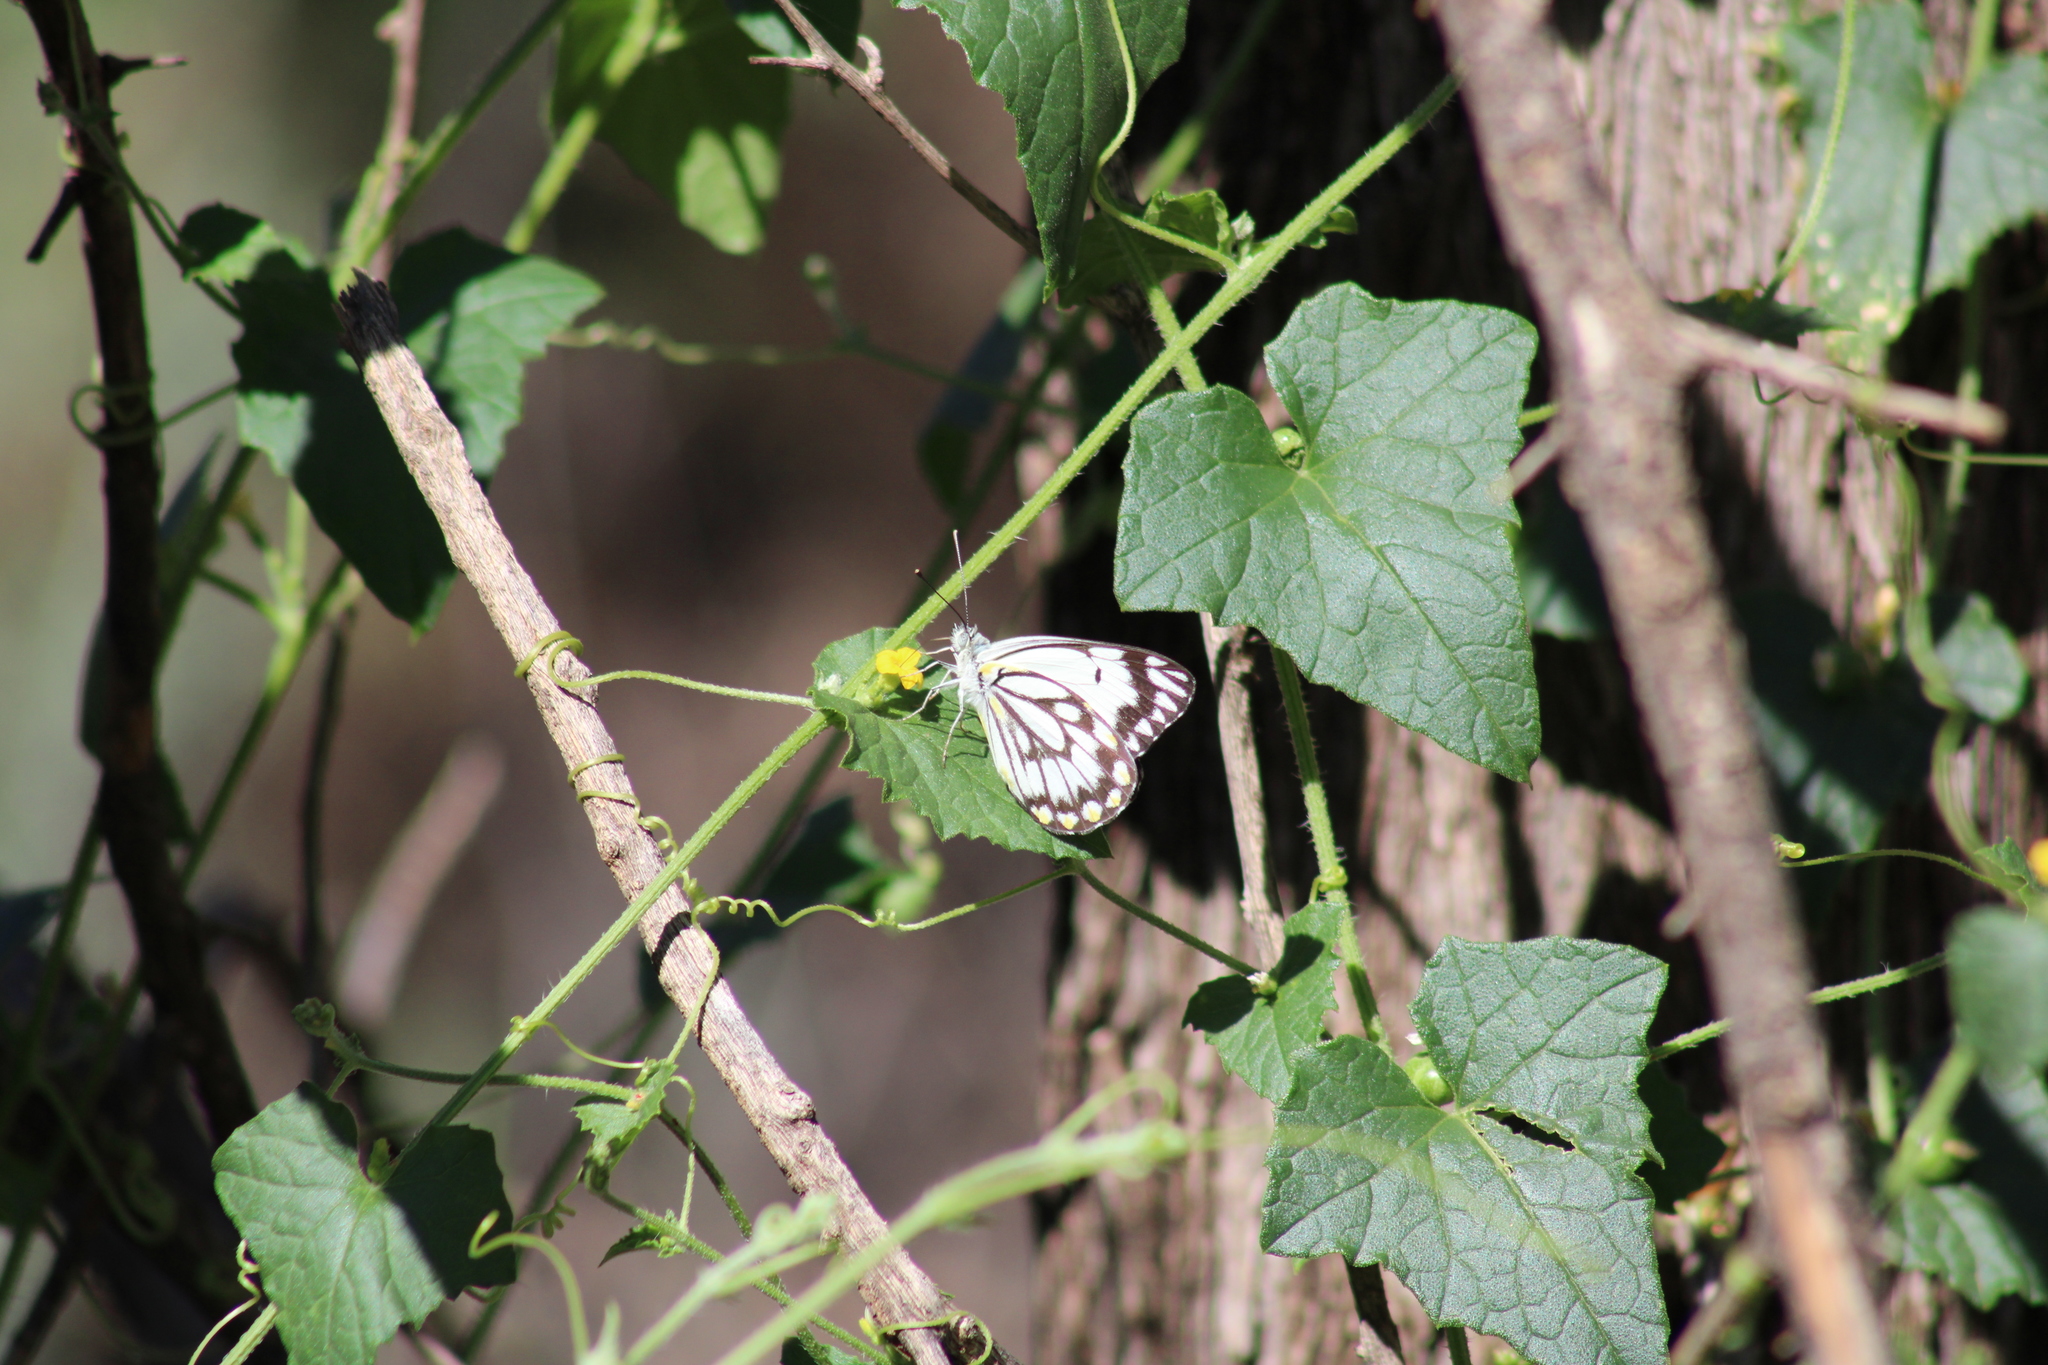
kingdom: Animalia
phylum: Arthropoda
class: Insecta
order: Lepidoptera
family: Pieridae
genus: Belenois
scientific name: Belenois java
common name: Caper white
